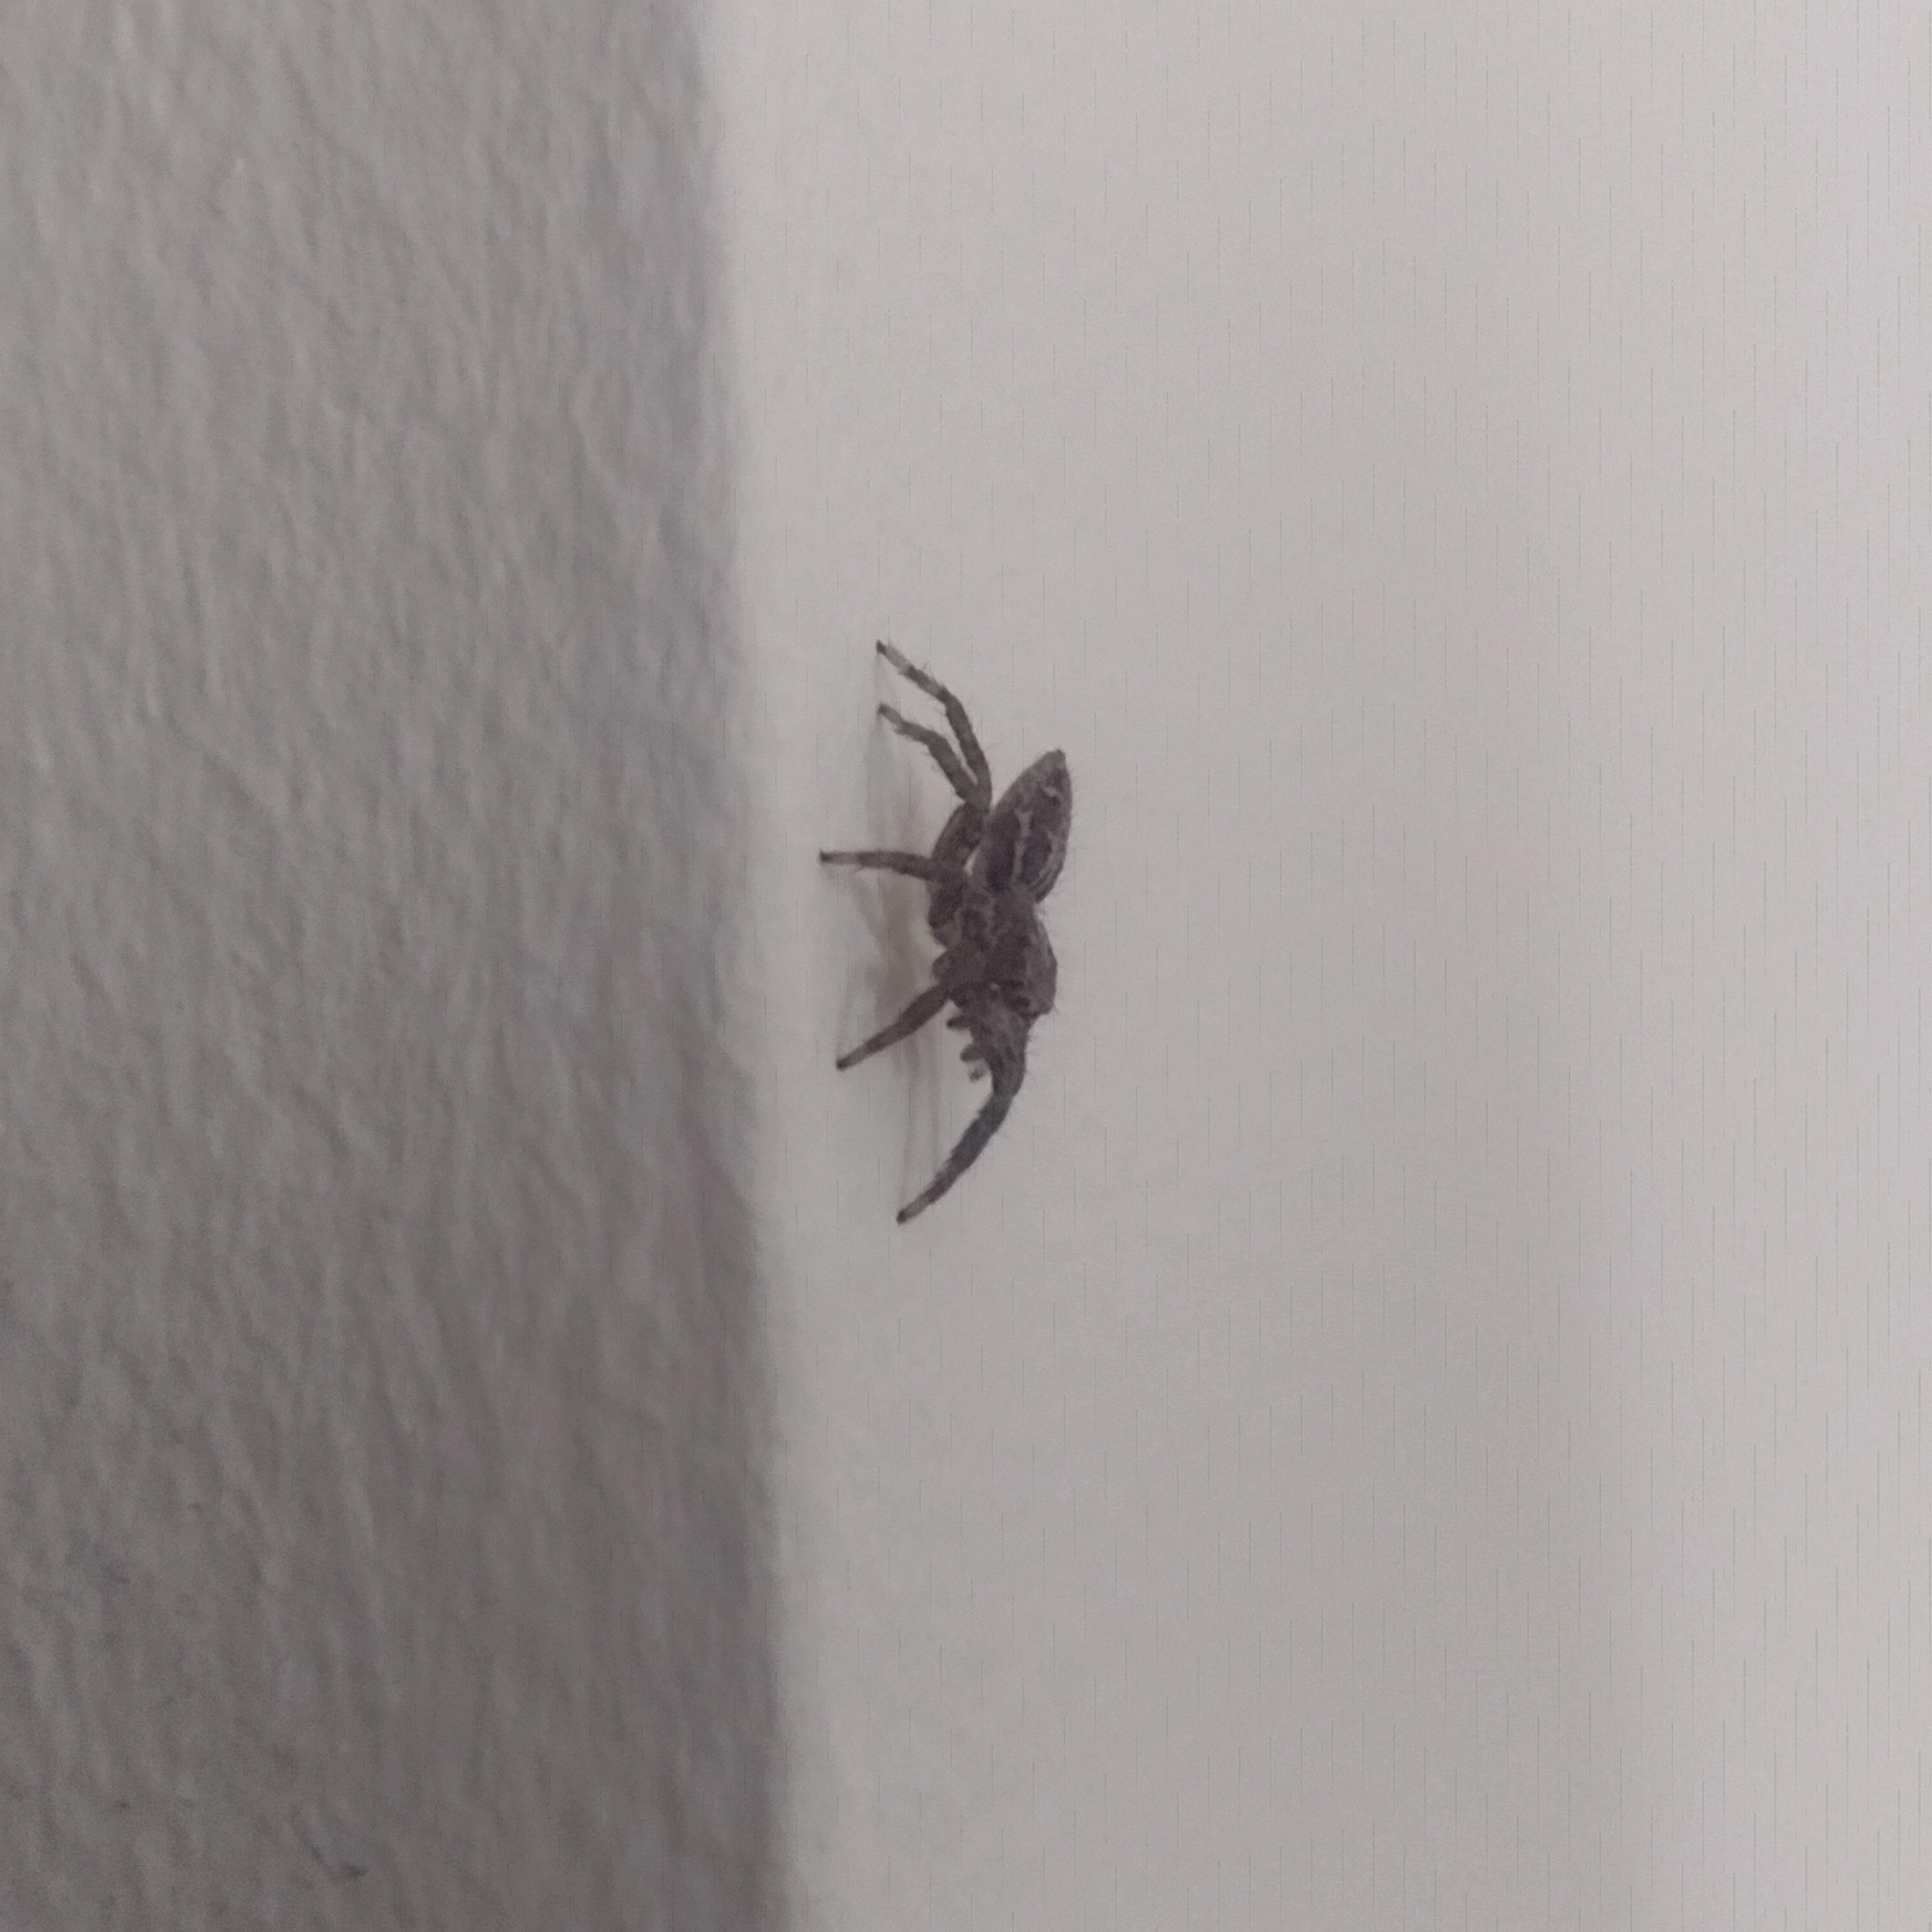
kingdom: Animalia
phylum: Arthropoda
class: Arachnida
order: Araneae
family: Salticidae
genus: Plexippus
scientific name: Plexippus paykulli
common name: Pantropical jumper
